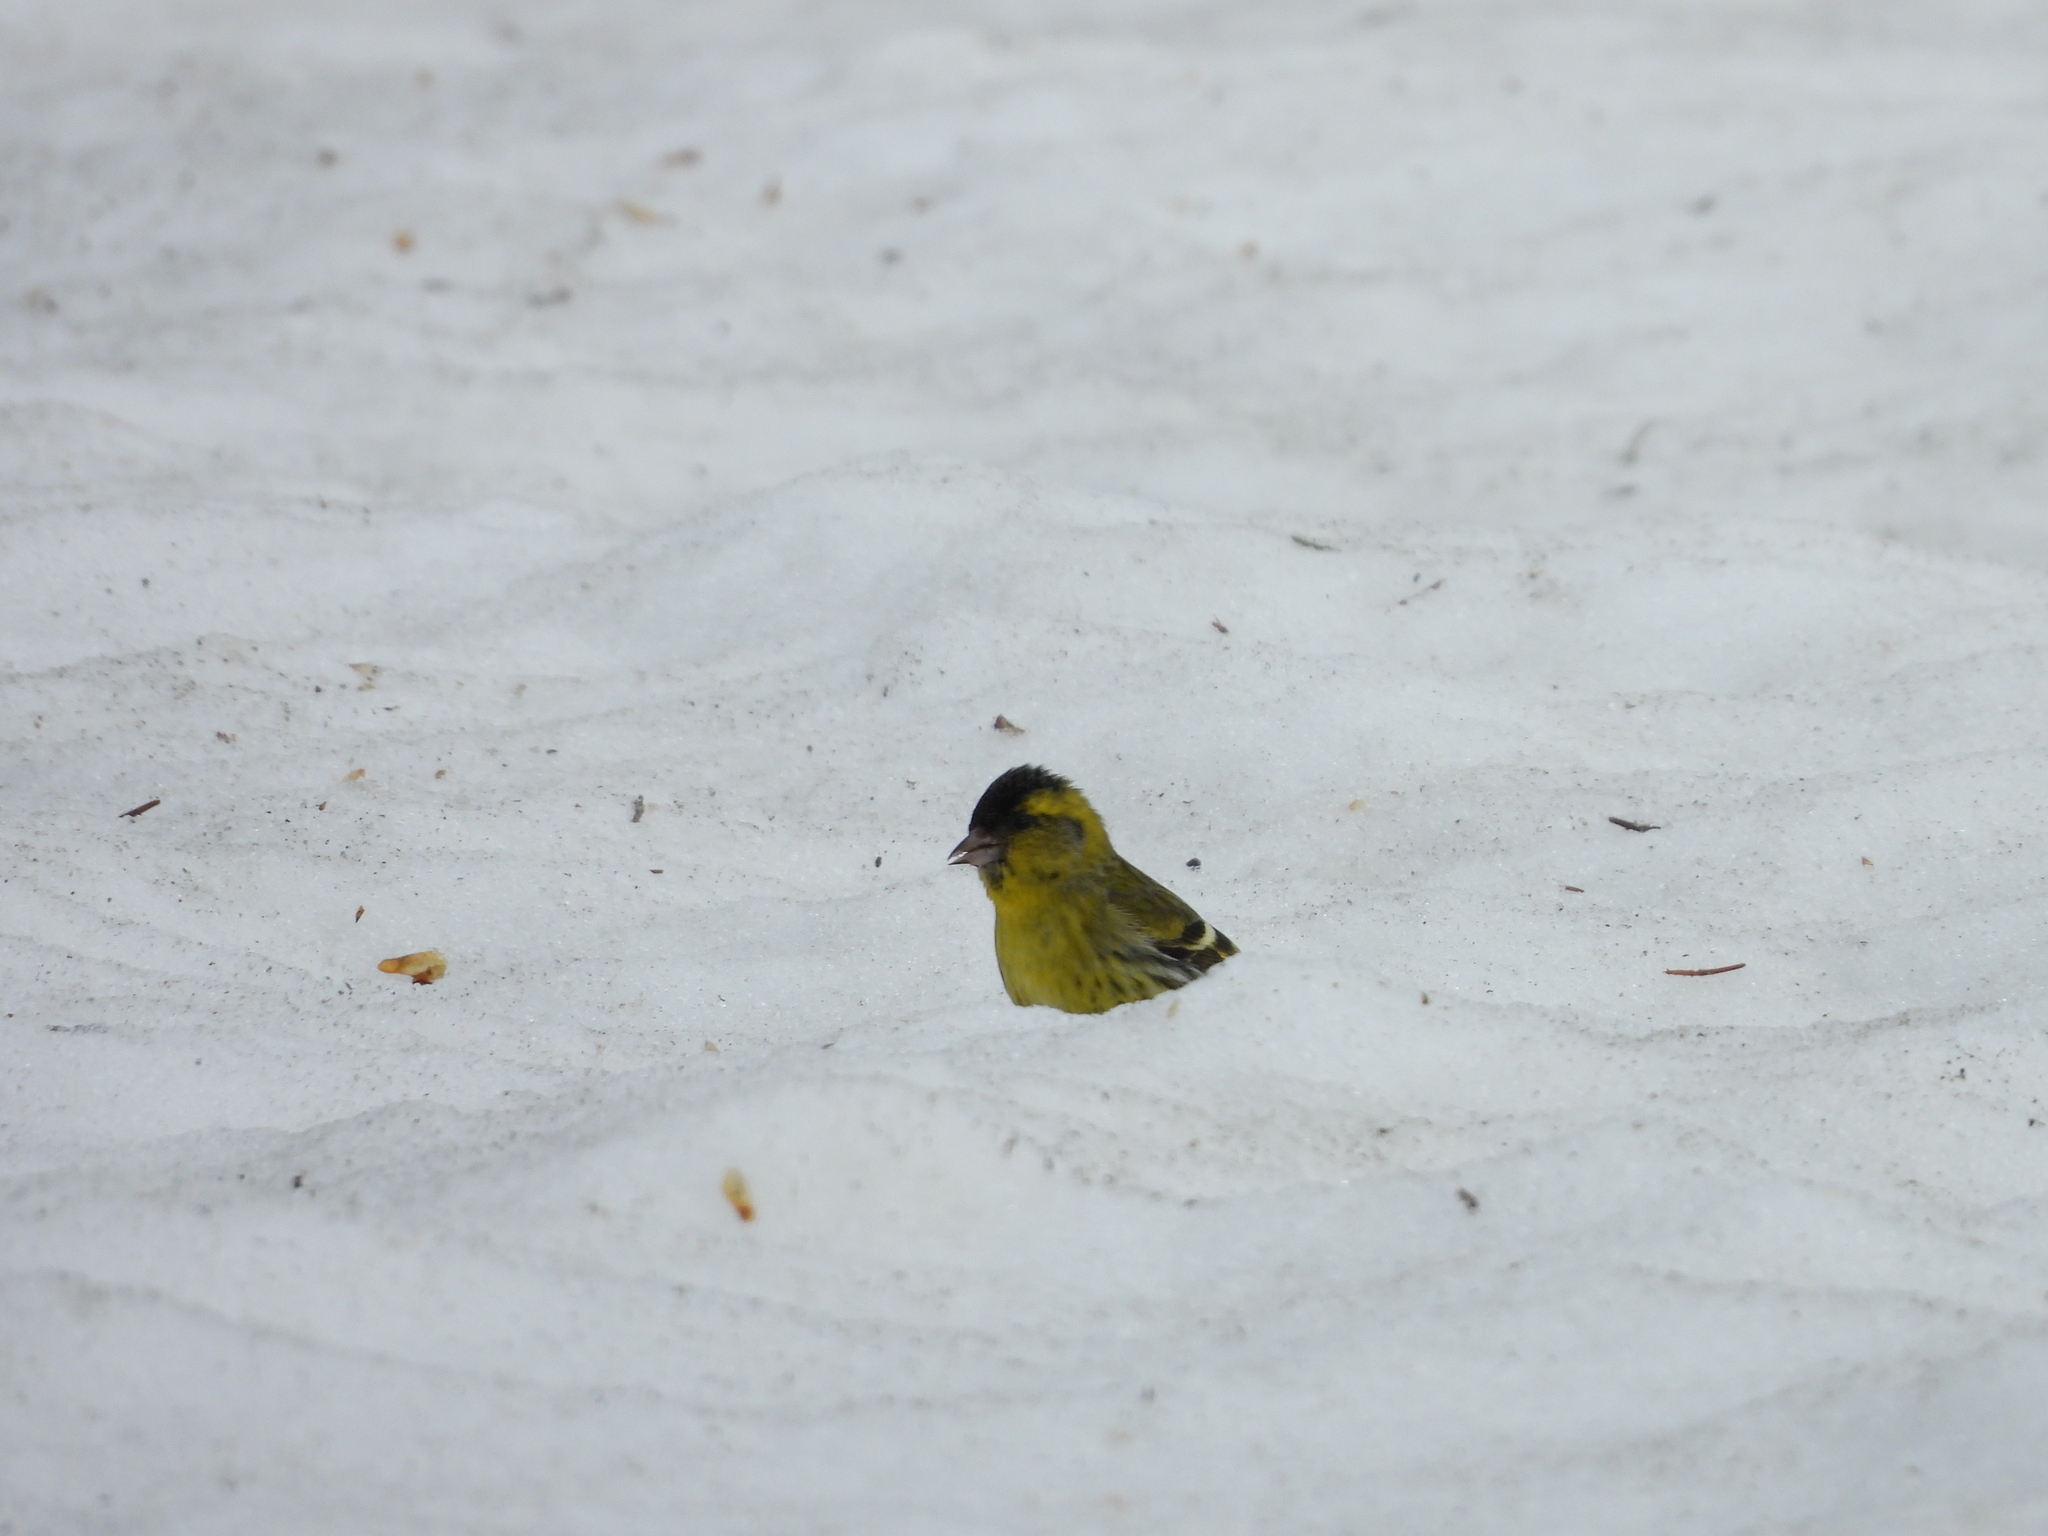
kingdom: Animalia
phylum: Chordata
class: Aves
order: Passeriformes
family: Fringillidae
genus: Spinus
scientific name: Spinus spinus
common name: Eurasian siskin
